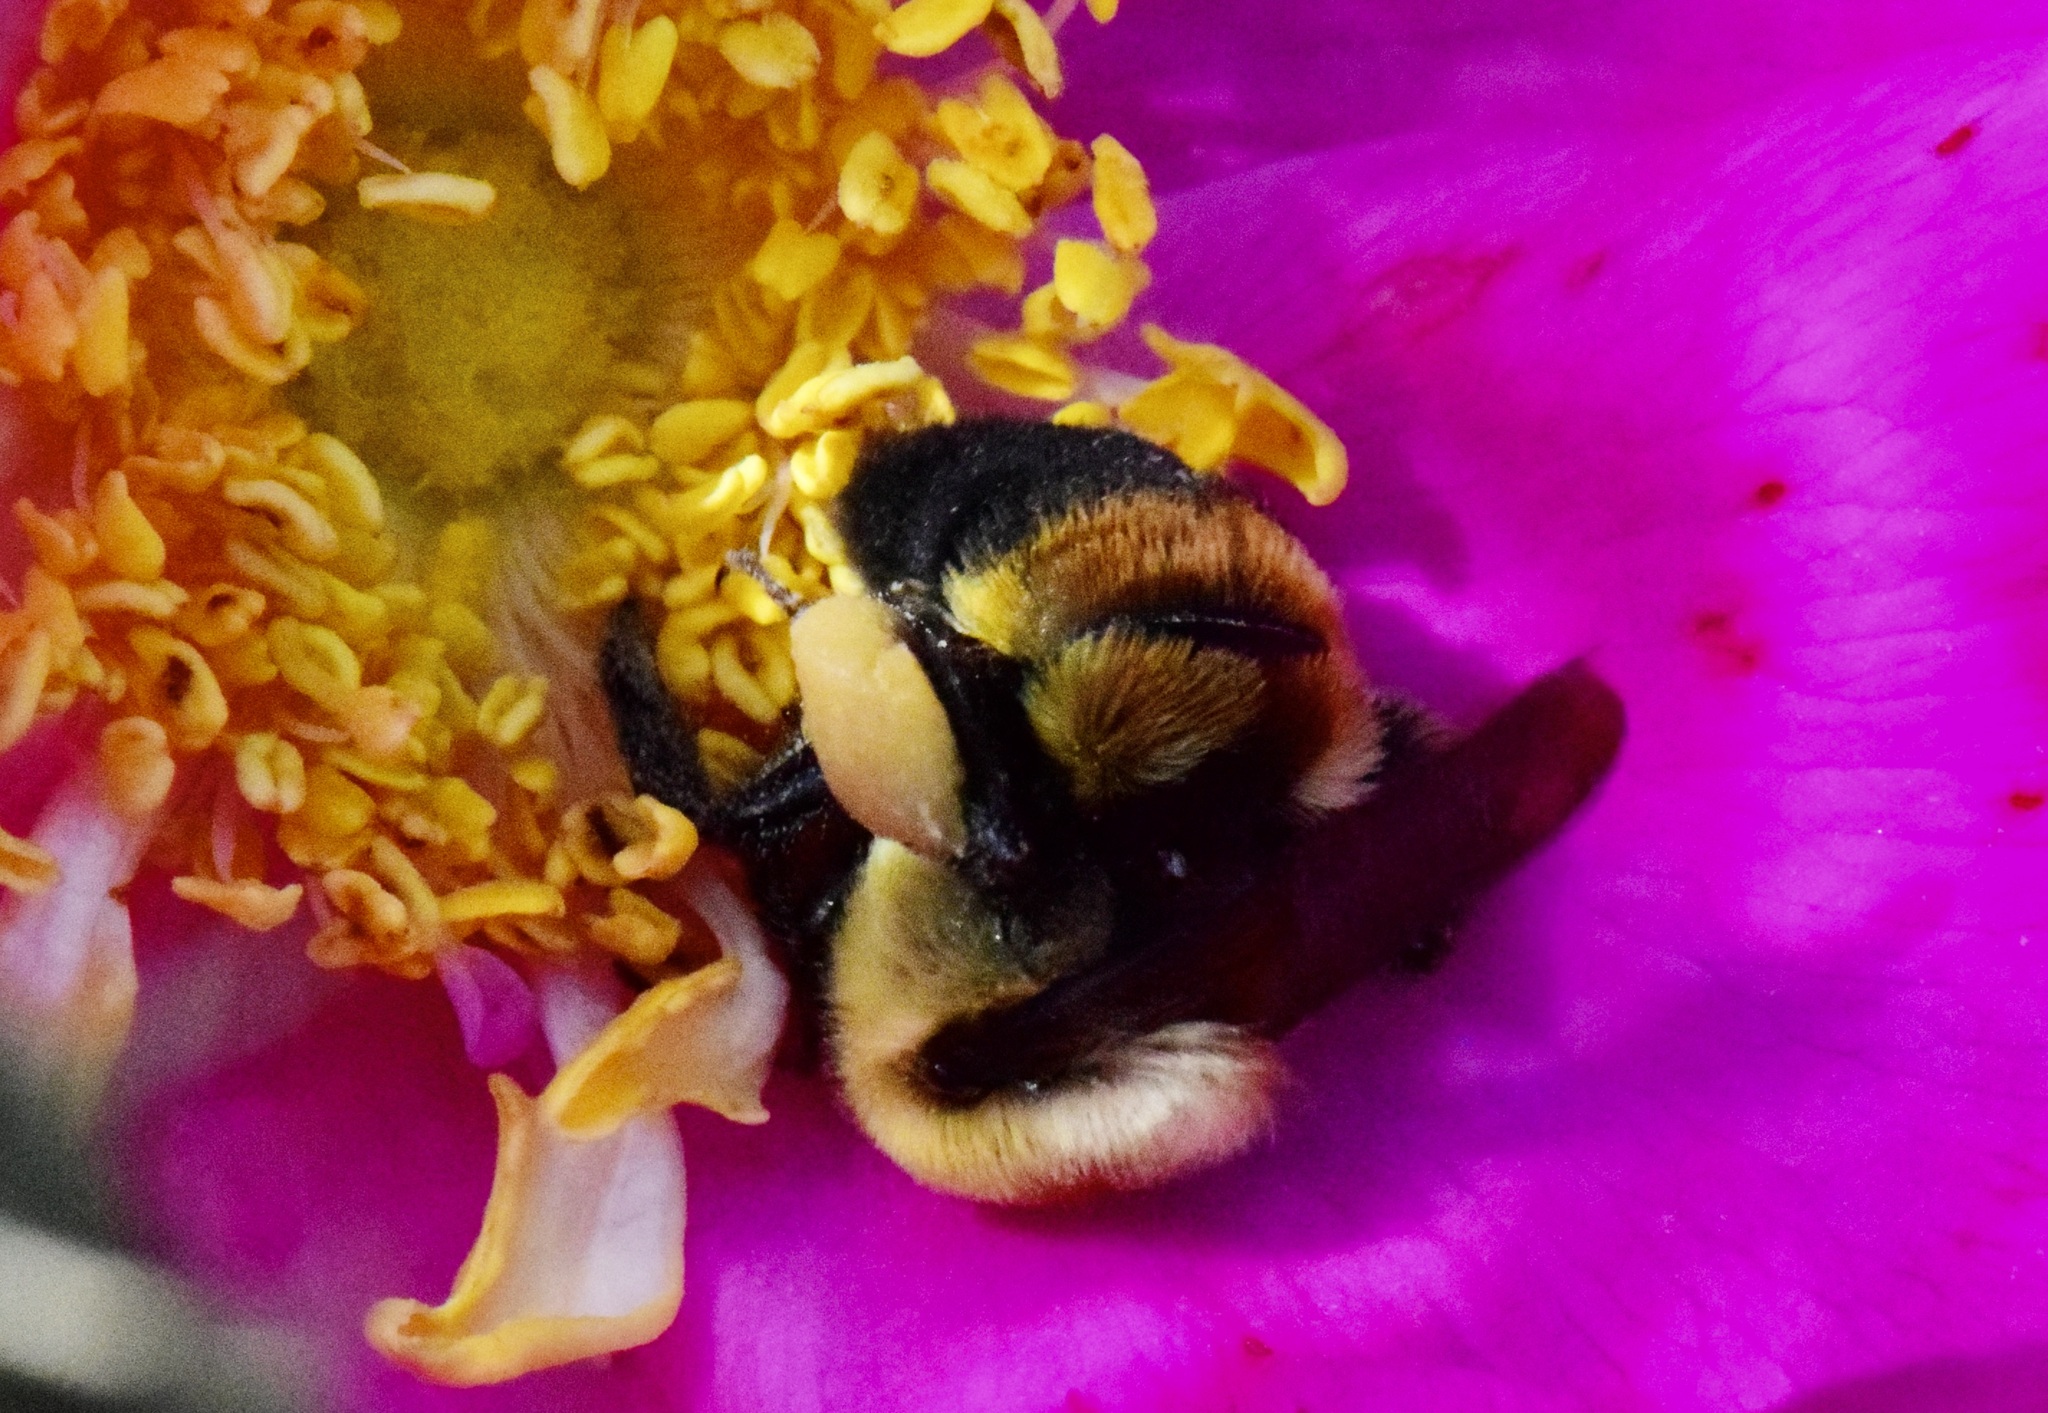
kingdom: Animalia
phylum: Arthropoda
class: Insecta
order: Hymenoptera
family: Apidae
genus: Bombus
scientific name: Bombus griseocollis
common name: Brown-belted bumble bee
